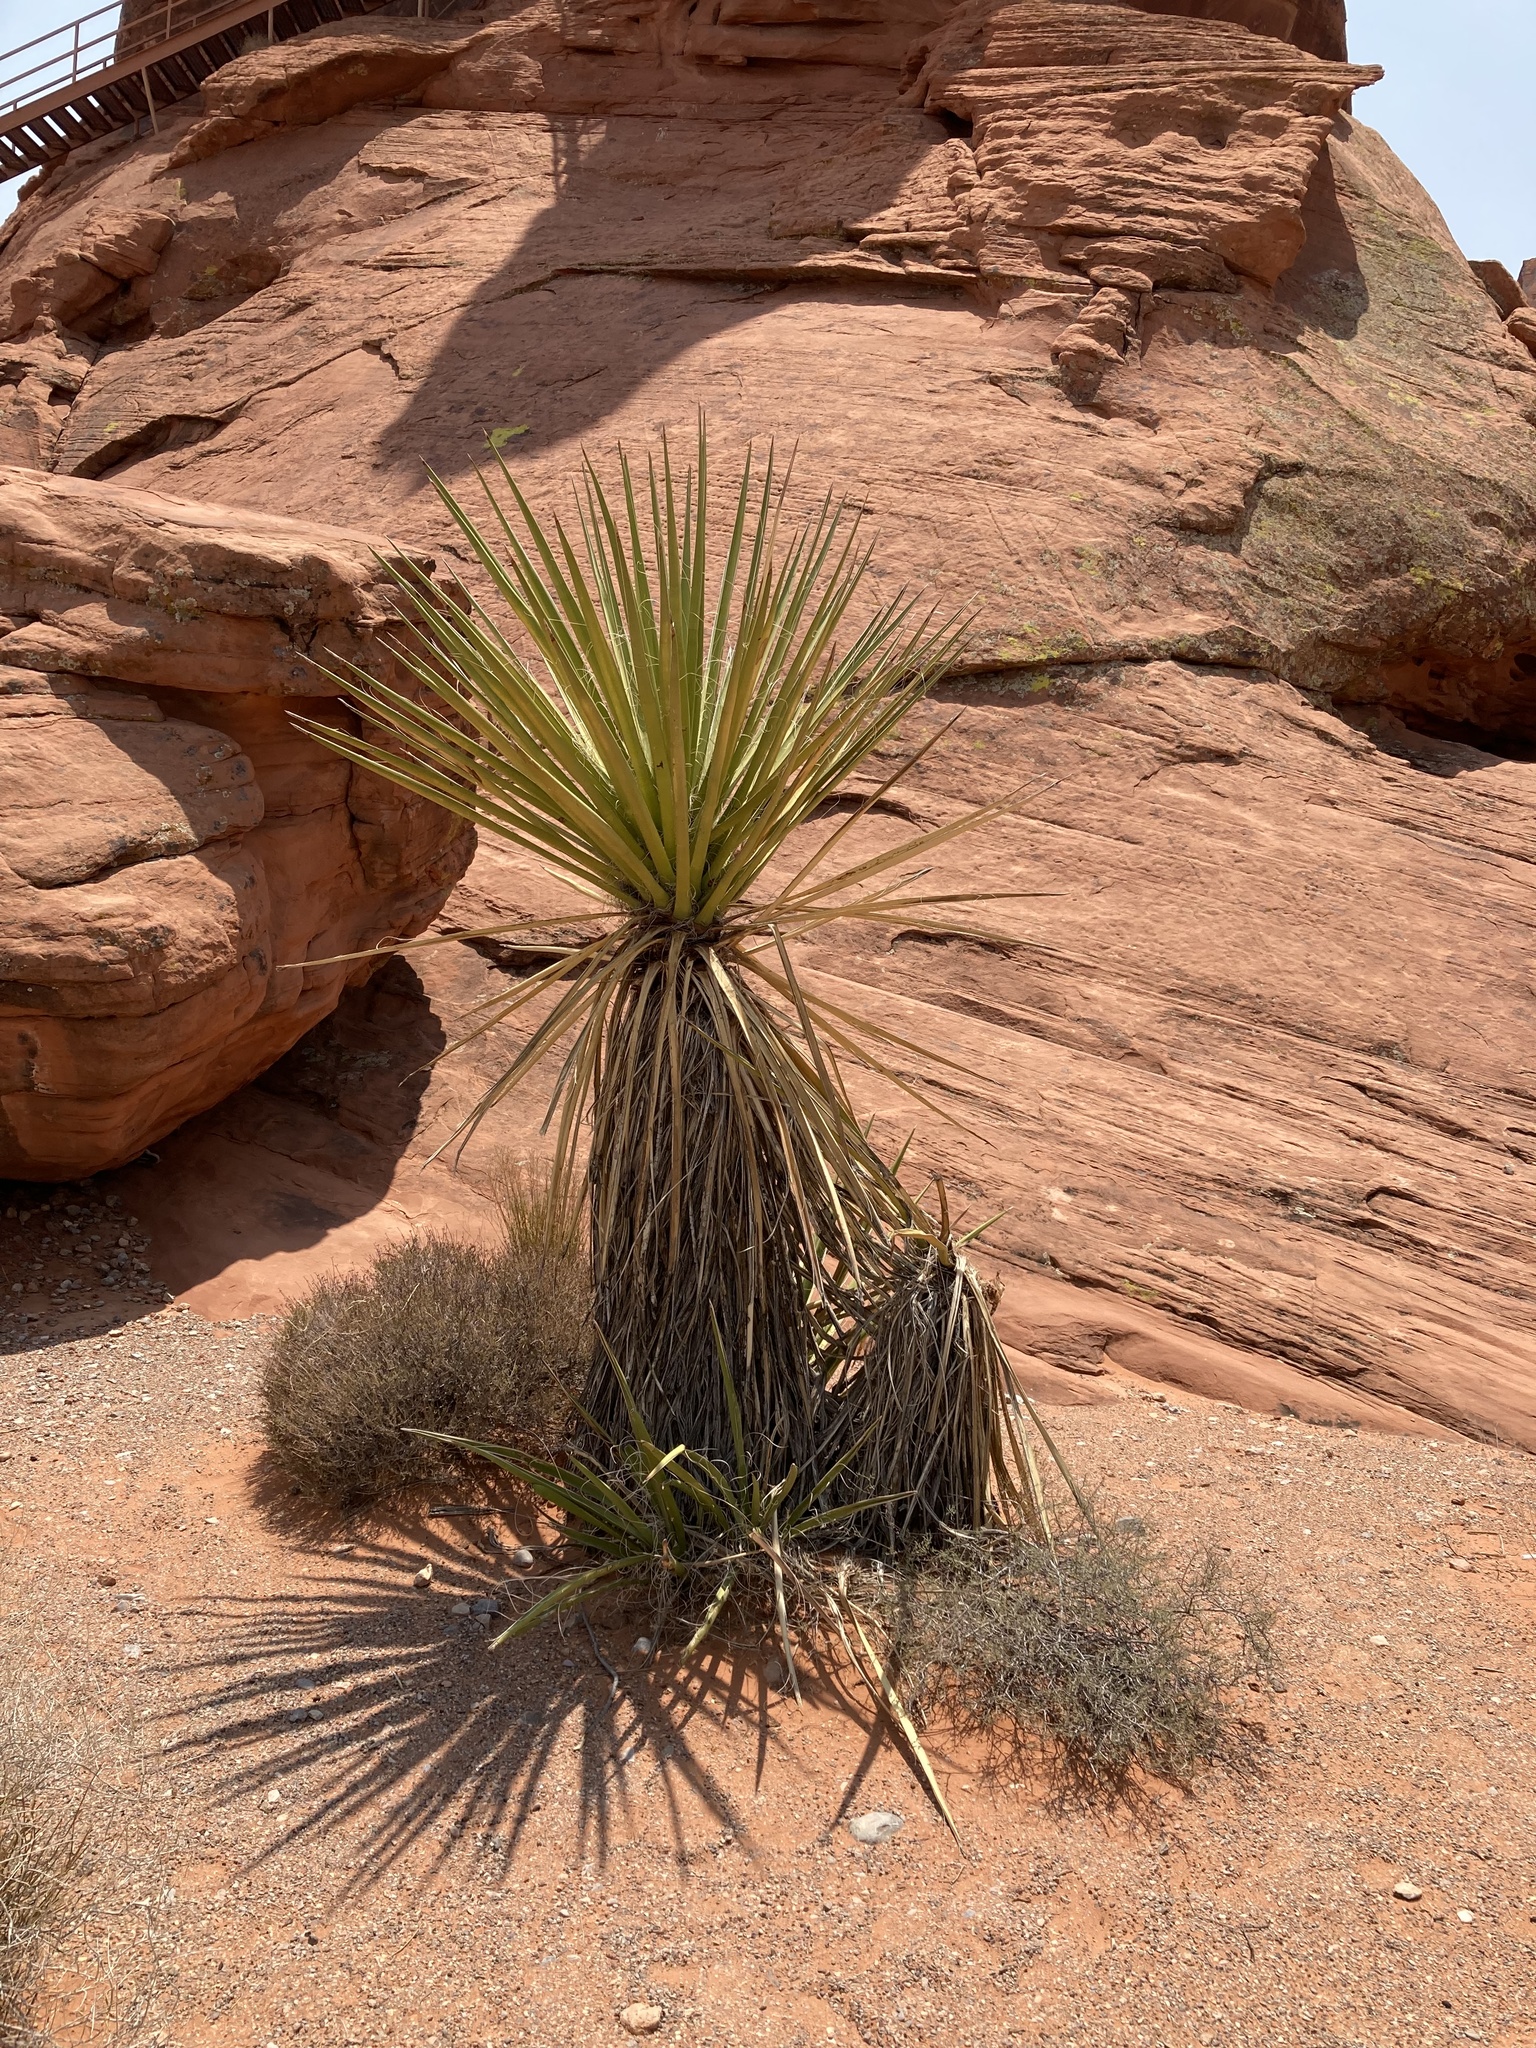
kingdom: Plantae
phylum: Tracheophyta
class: Liliopsida
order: Asparagales
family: Asparagaceae
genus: Yucca
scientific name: Yucca schidigera
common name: Mojave yucca
